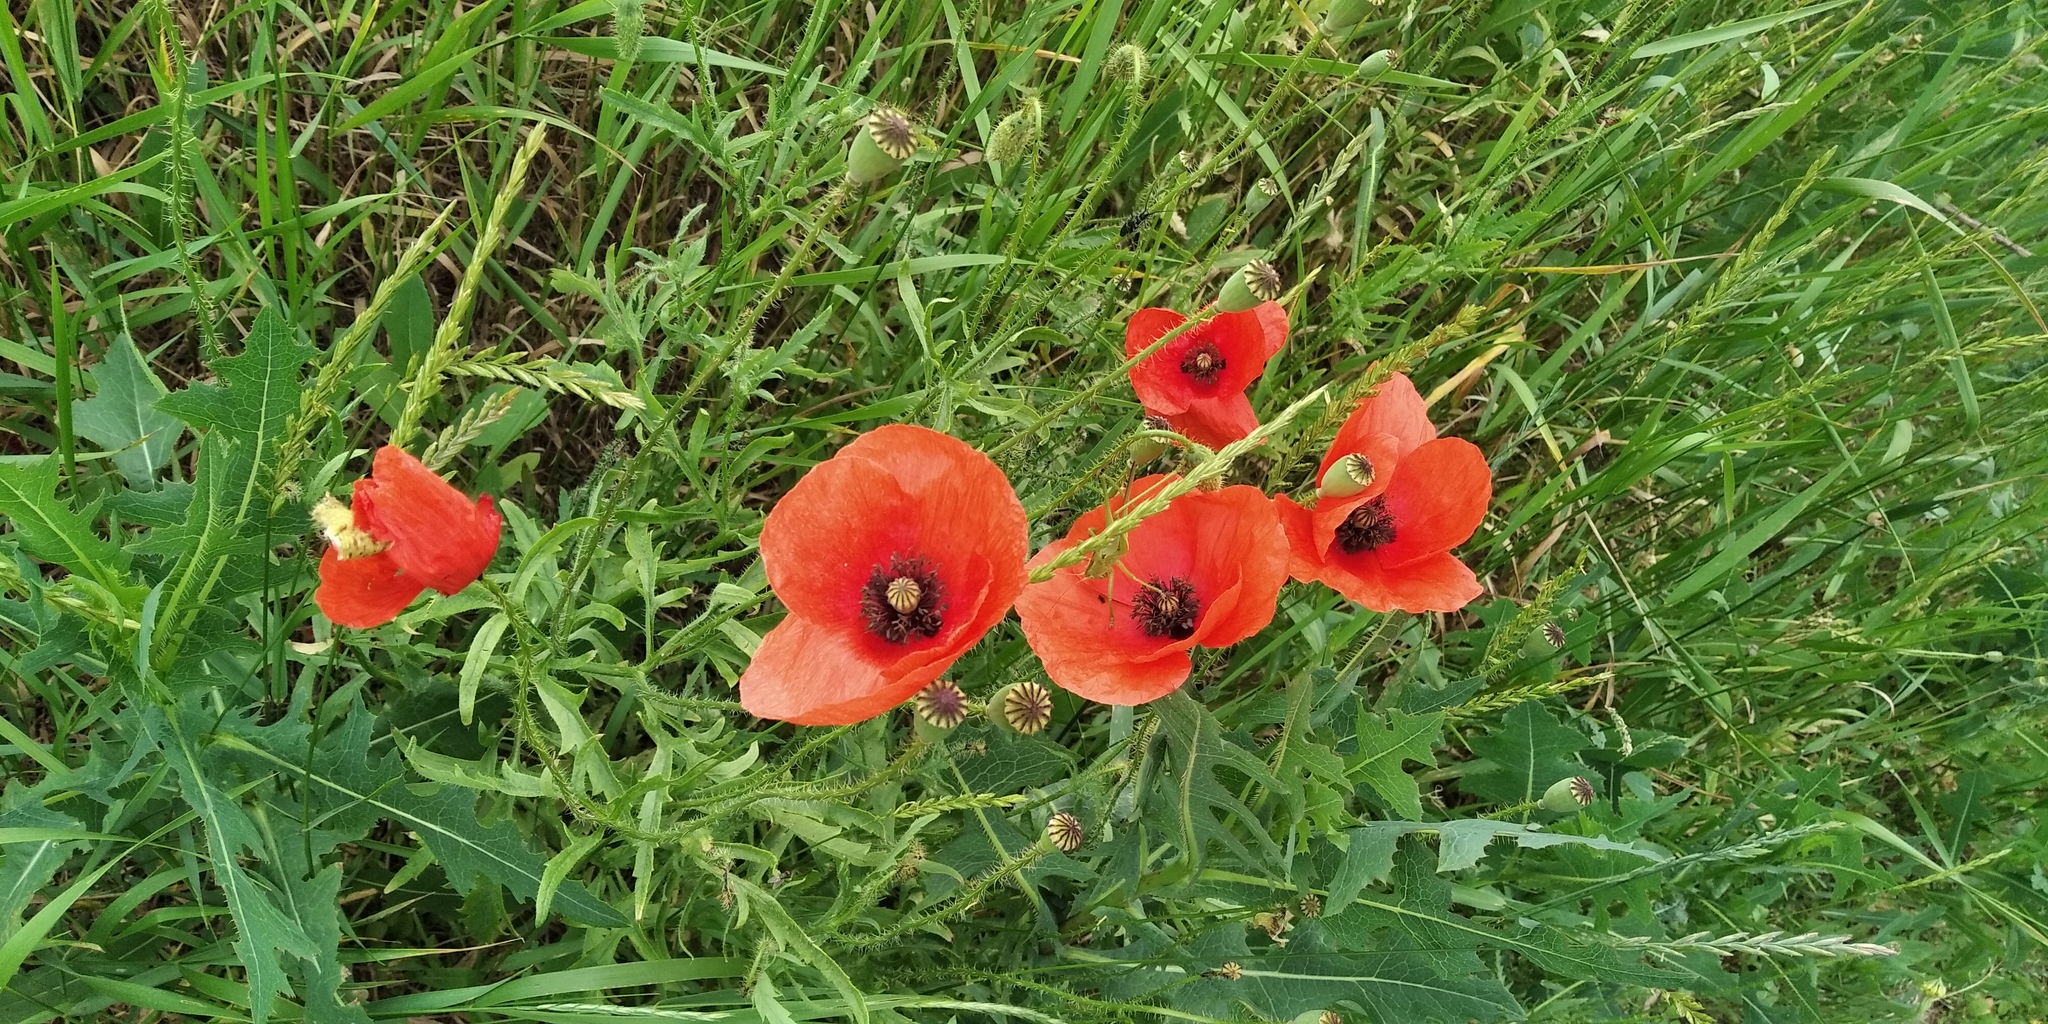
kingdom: Plantae
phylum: Tracheophyta
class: Magnoliopsida
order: Ranunculales
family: Papaveraceae
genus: Papaver
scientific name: Papaver rhoeas
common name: Corn poppy
